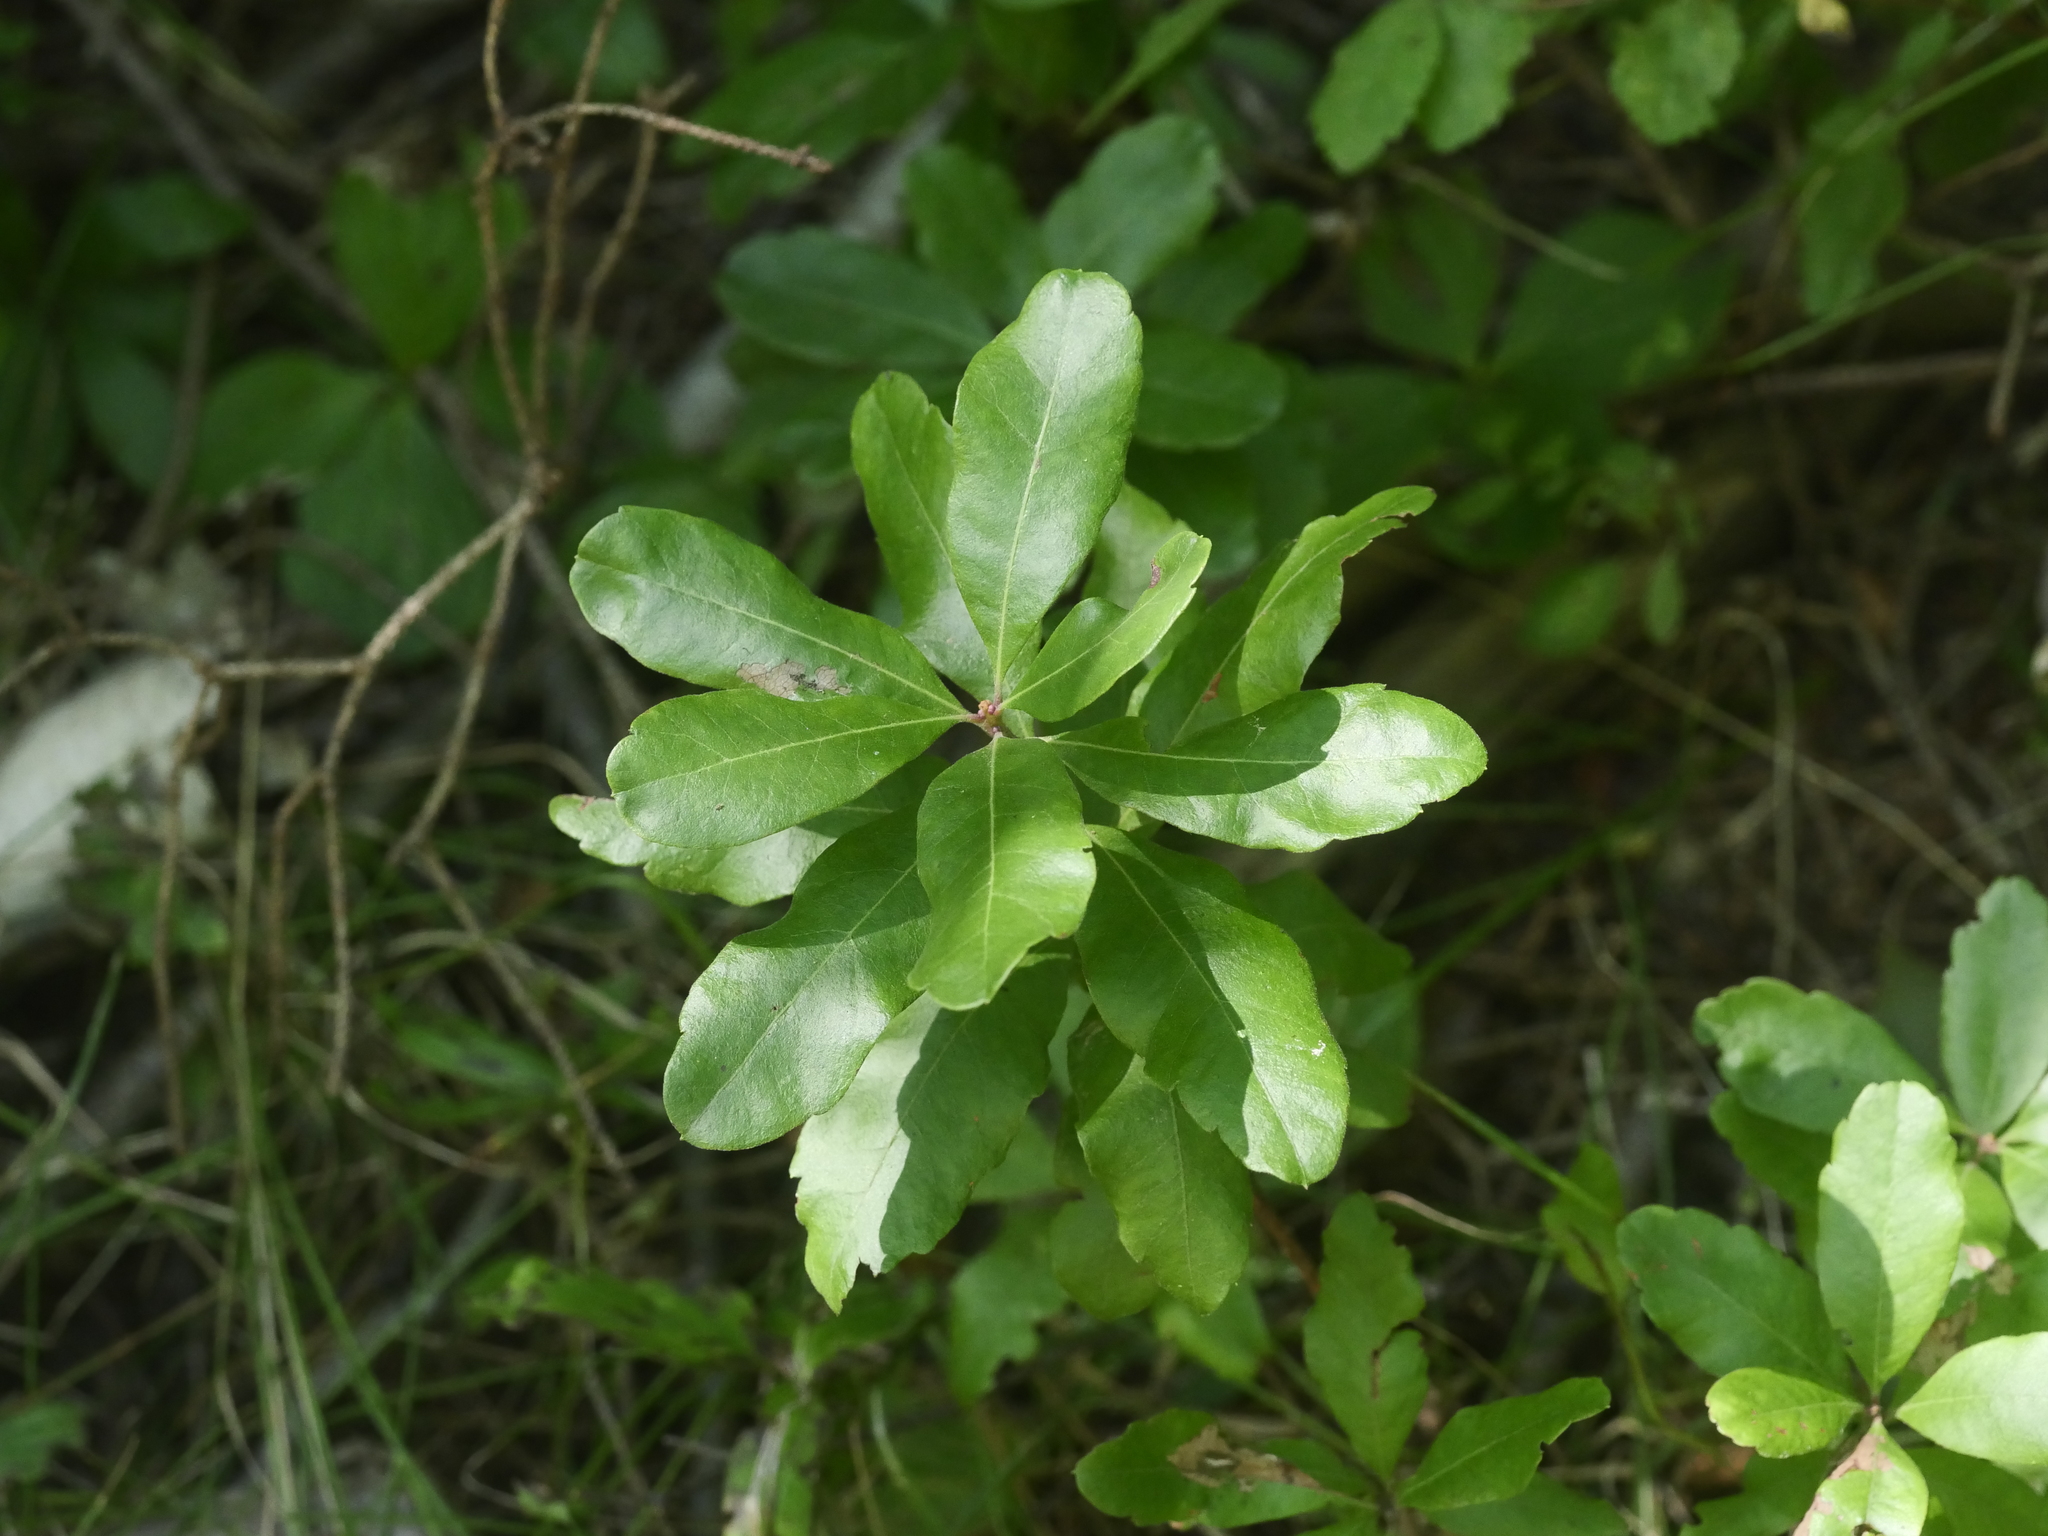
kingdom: Plantae
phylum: Tracheophyta
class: Magnoliopsida
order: Fagales
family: Myricaceae
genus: Morella
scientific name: Morella pensylvanica
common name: Northern bayberry
